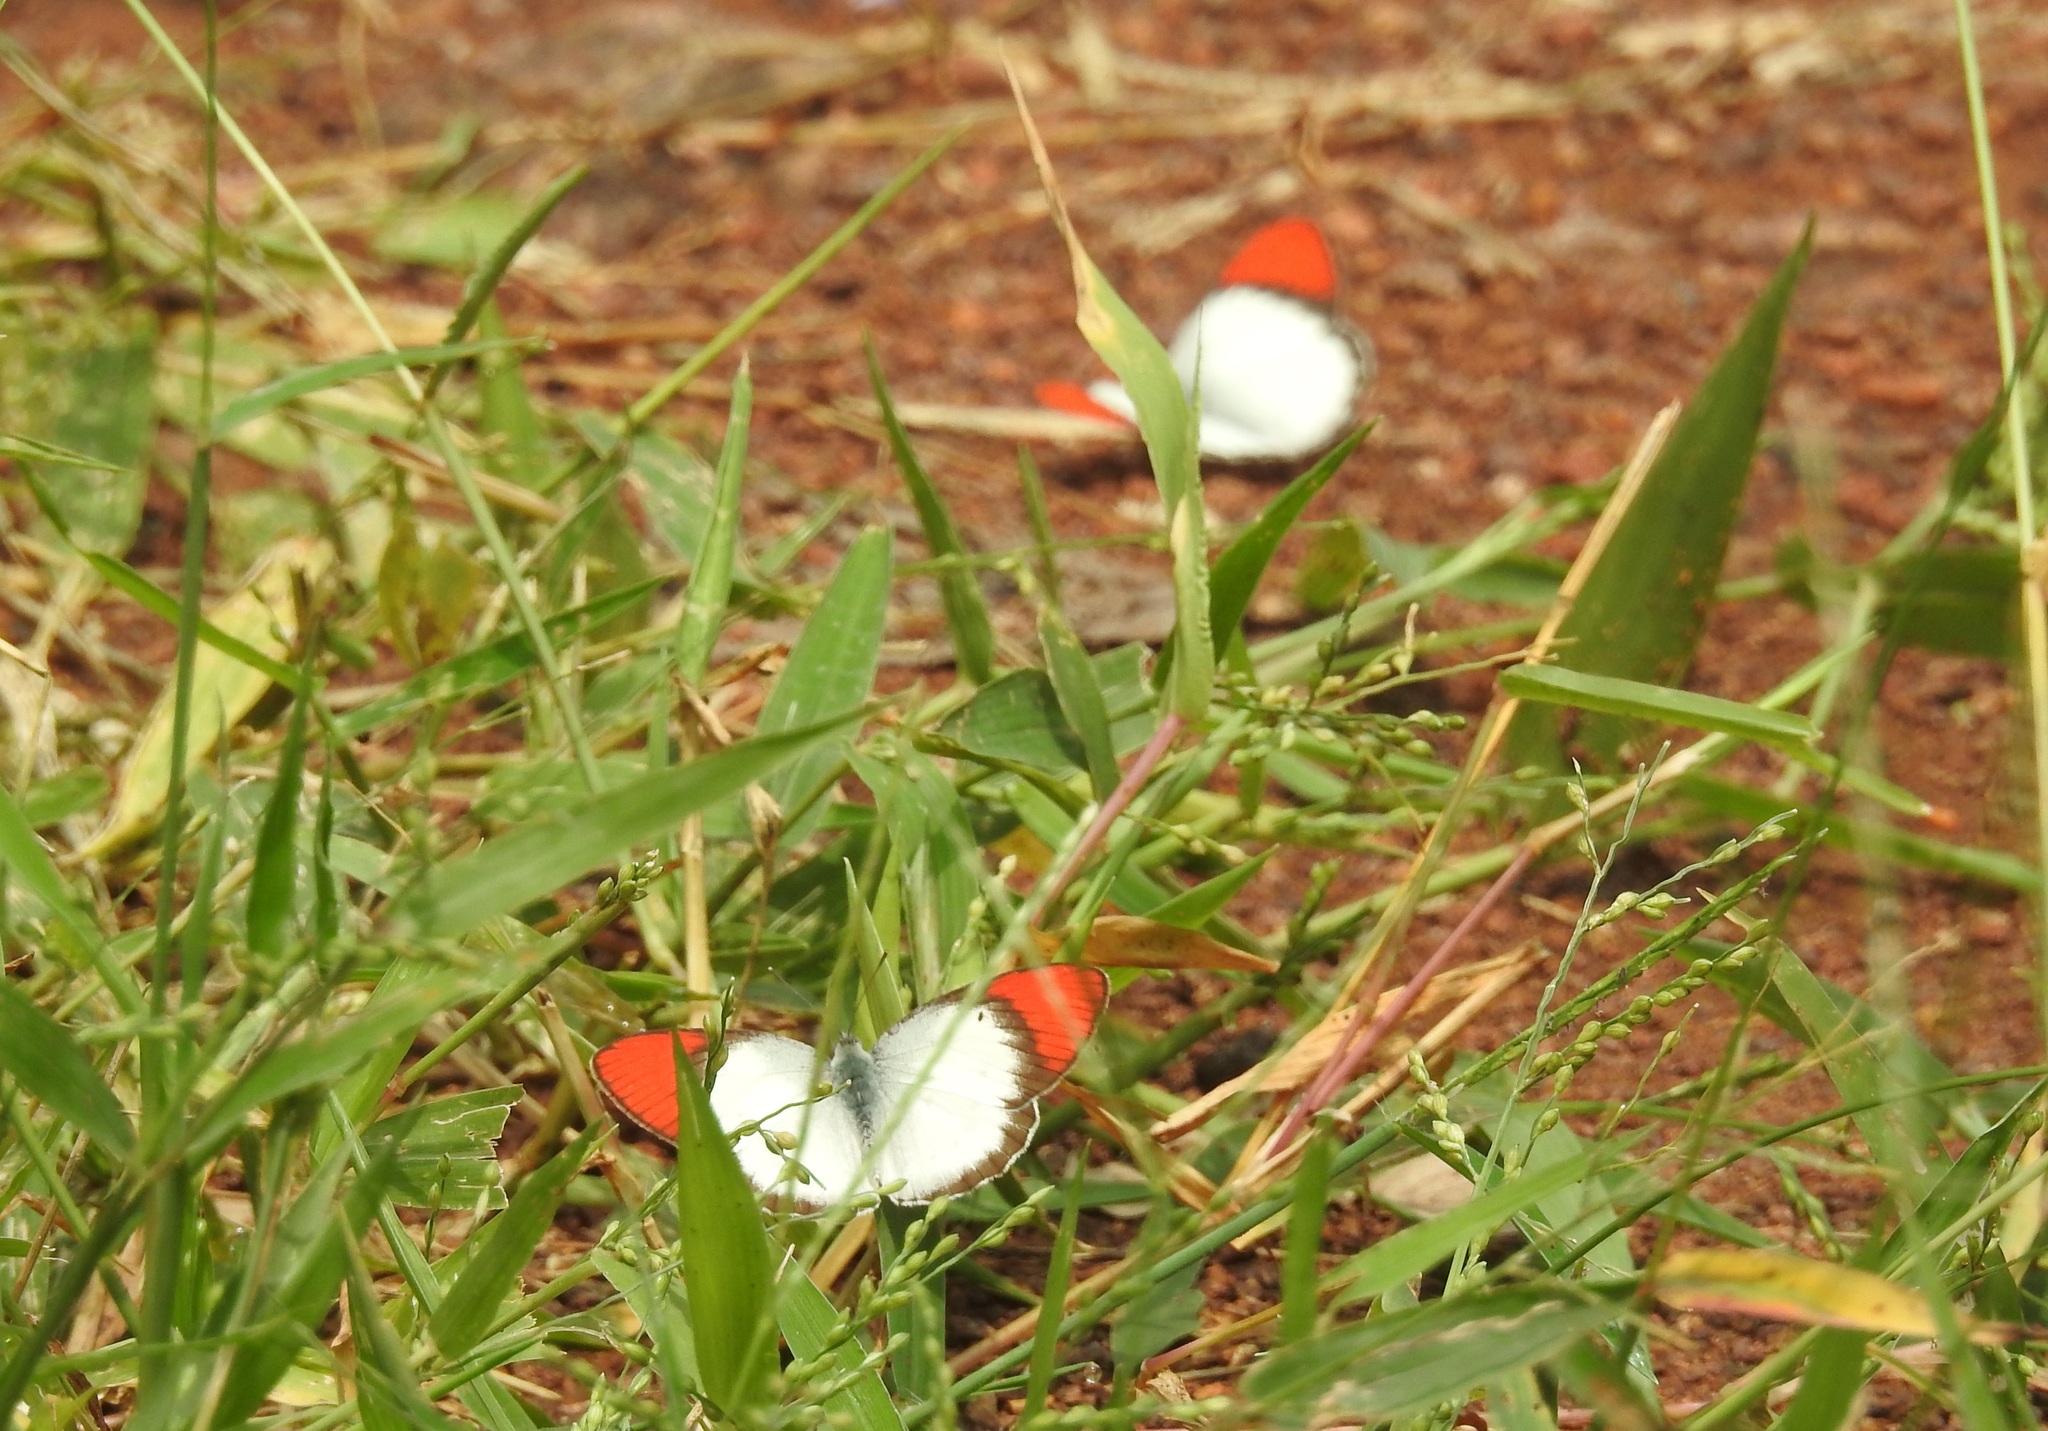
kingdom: Animalia
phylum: Arthropoda
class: Insecta
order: Lepidoptera
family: Pieridae
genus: Colotis
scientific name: Colotis danae
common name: Crimson tip
